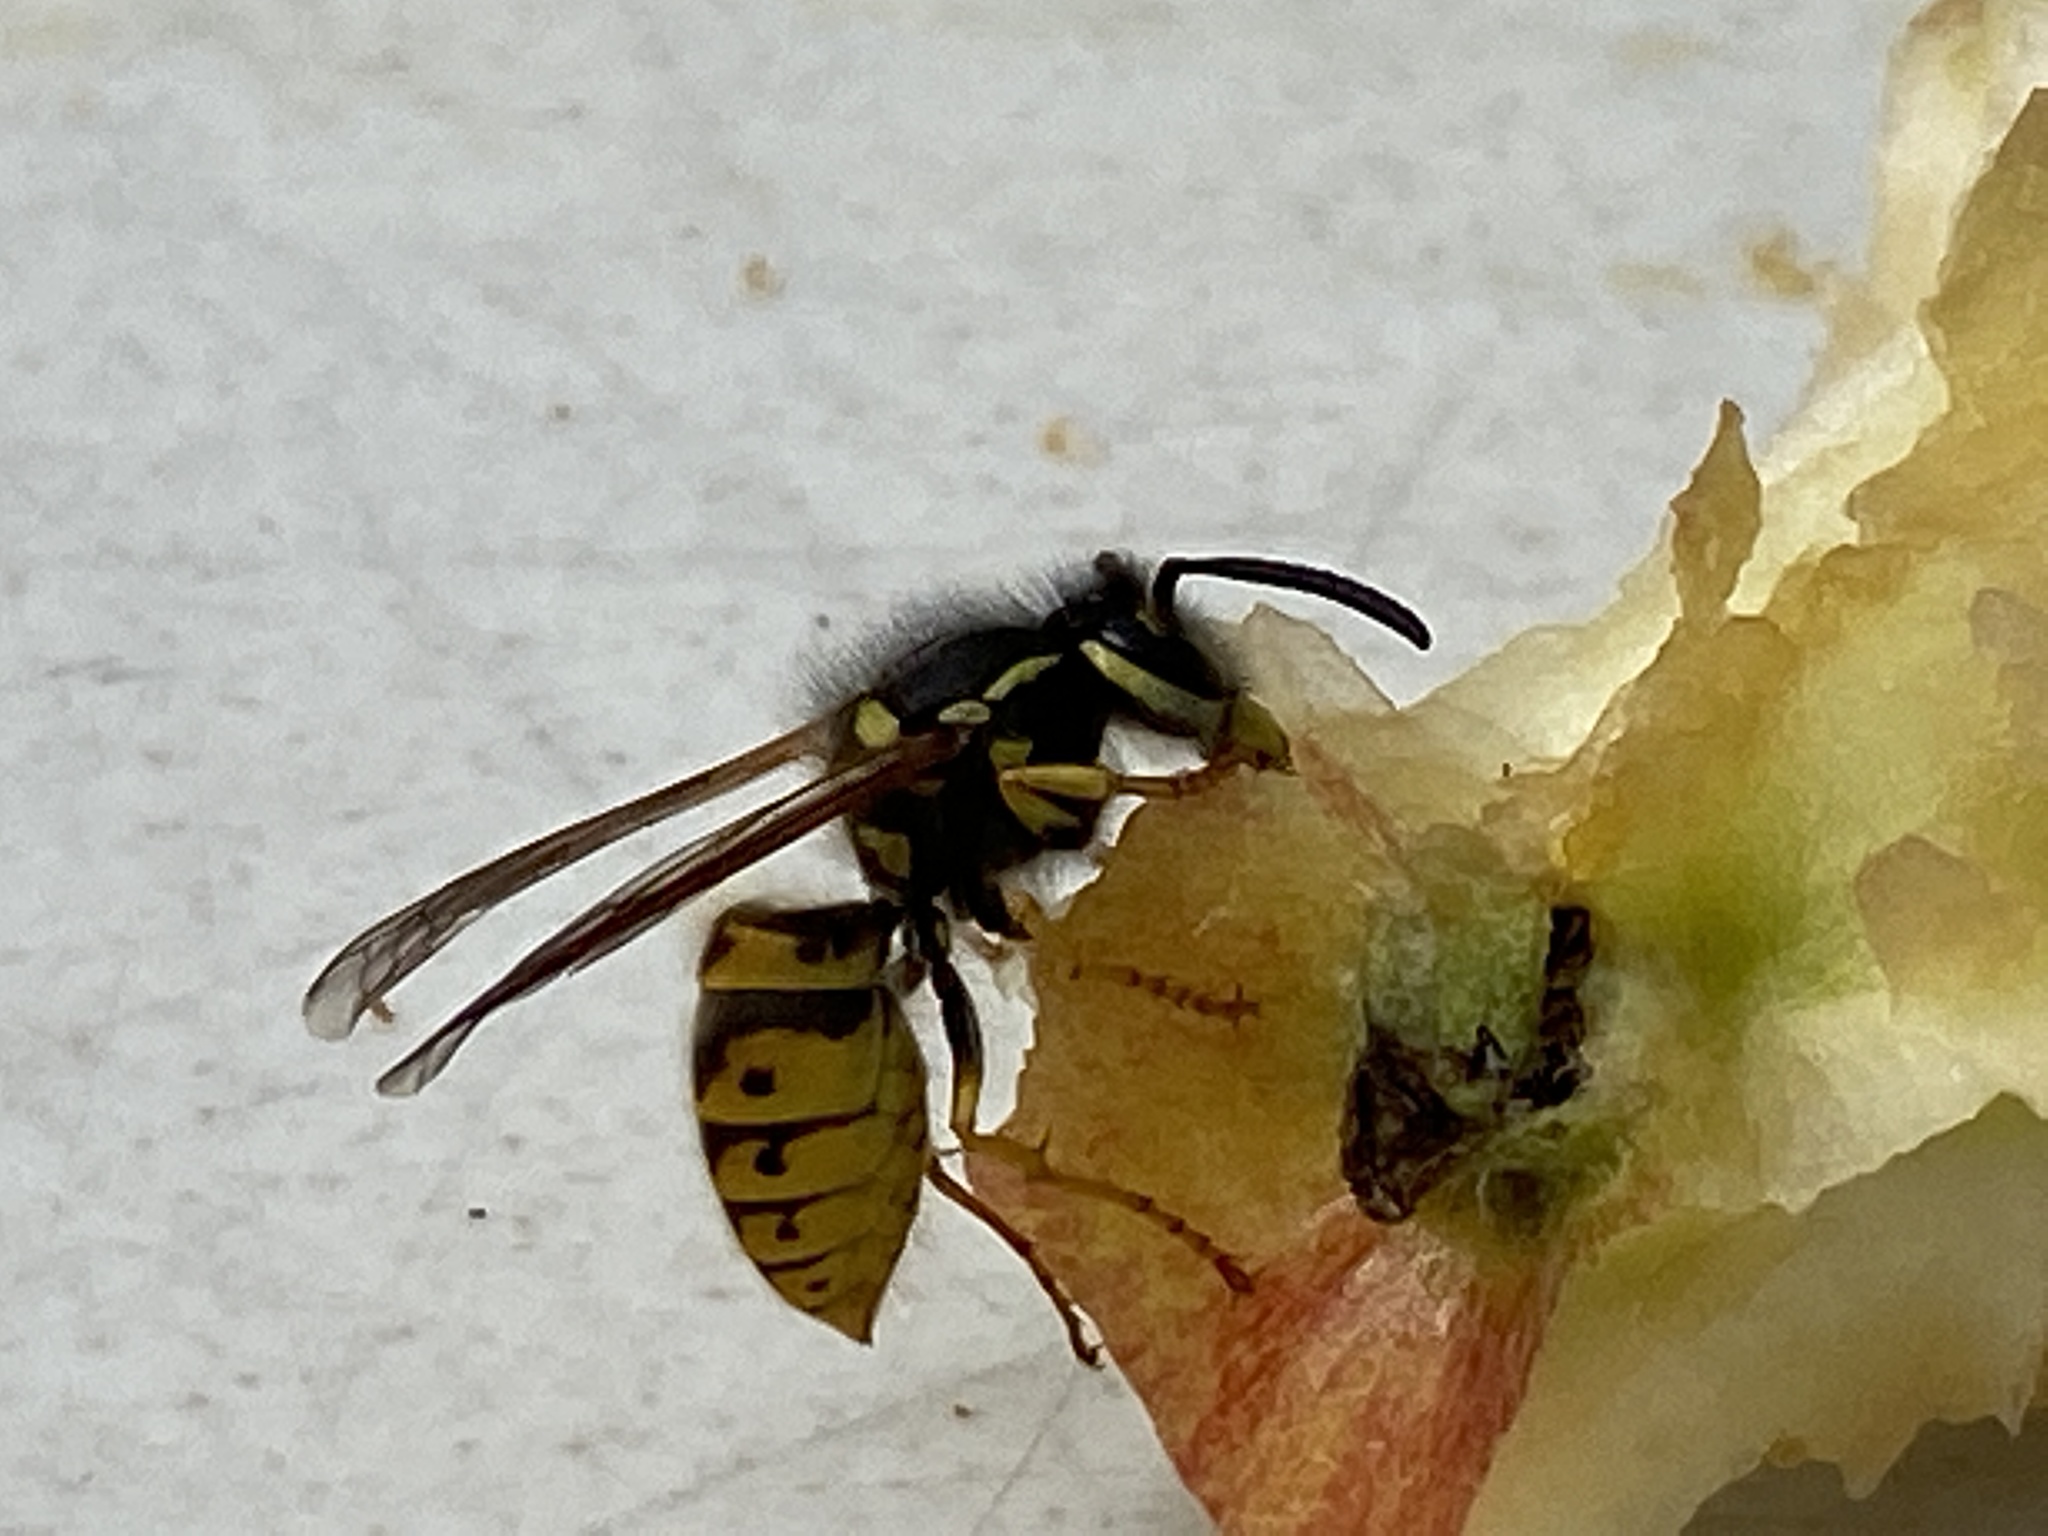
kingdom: Animalia
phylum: Arthropoda
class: Insecta
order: Hymenoptera
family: Vespidae
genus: Vespula
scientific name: Vespula germanica
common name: German wasp
